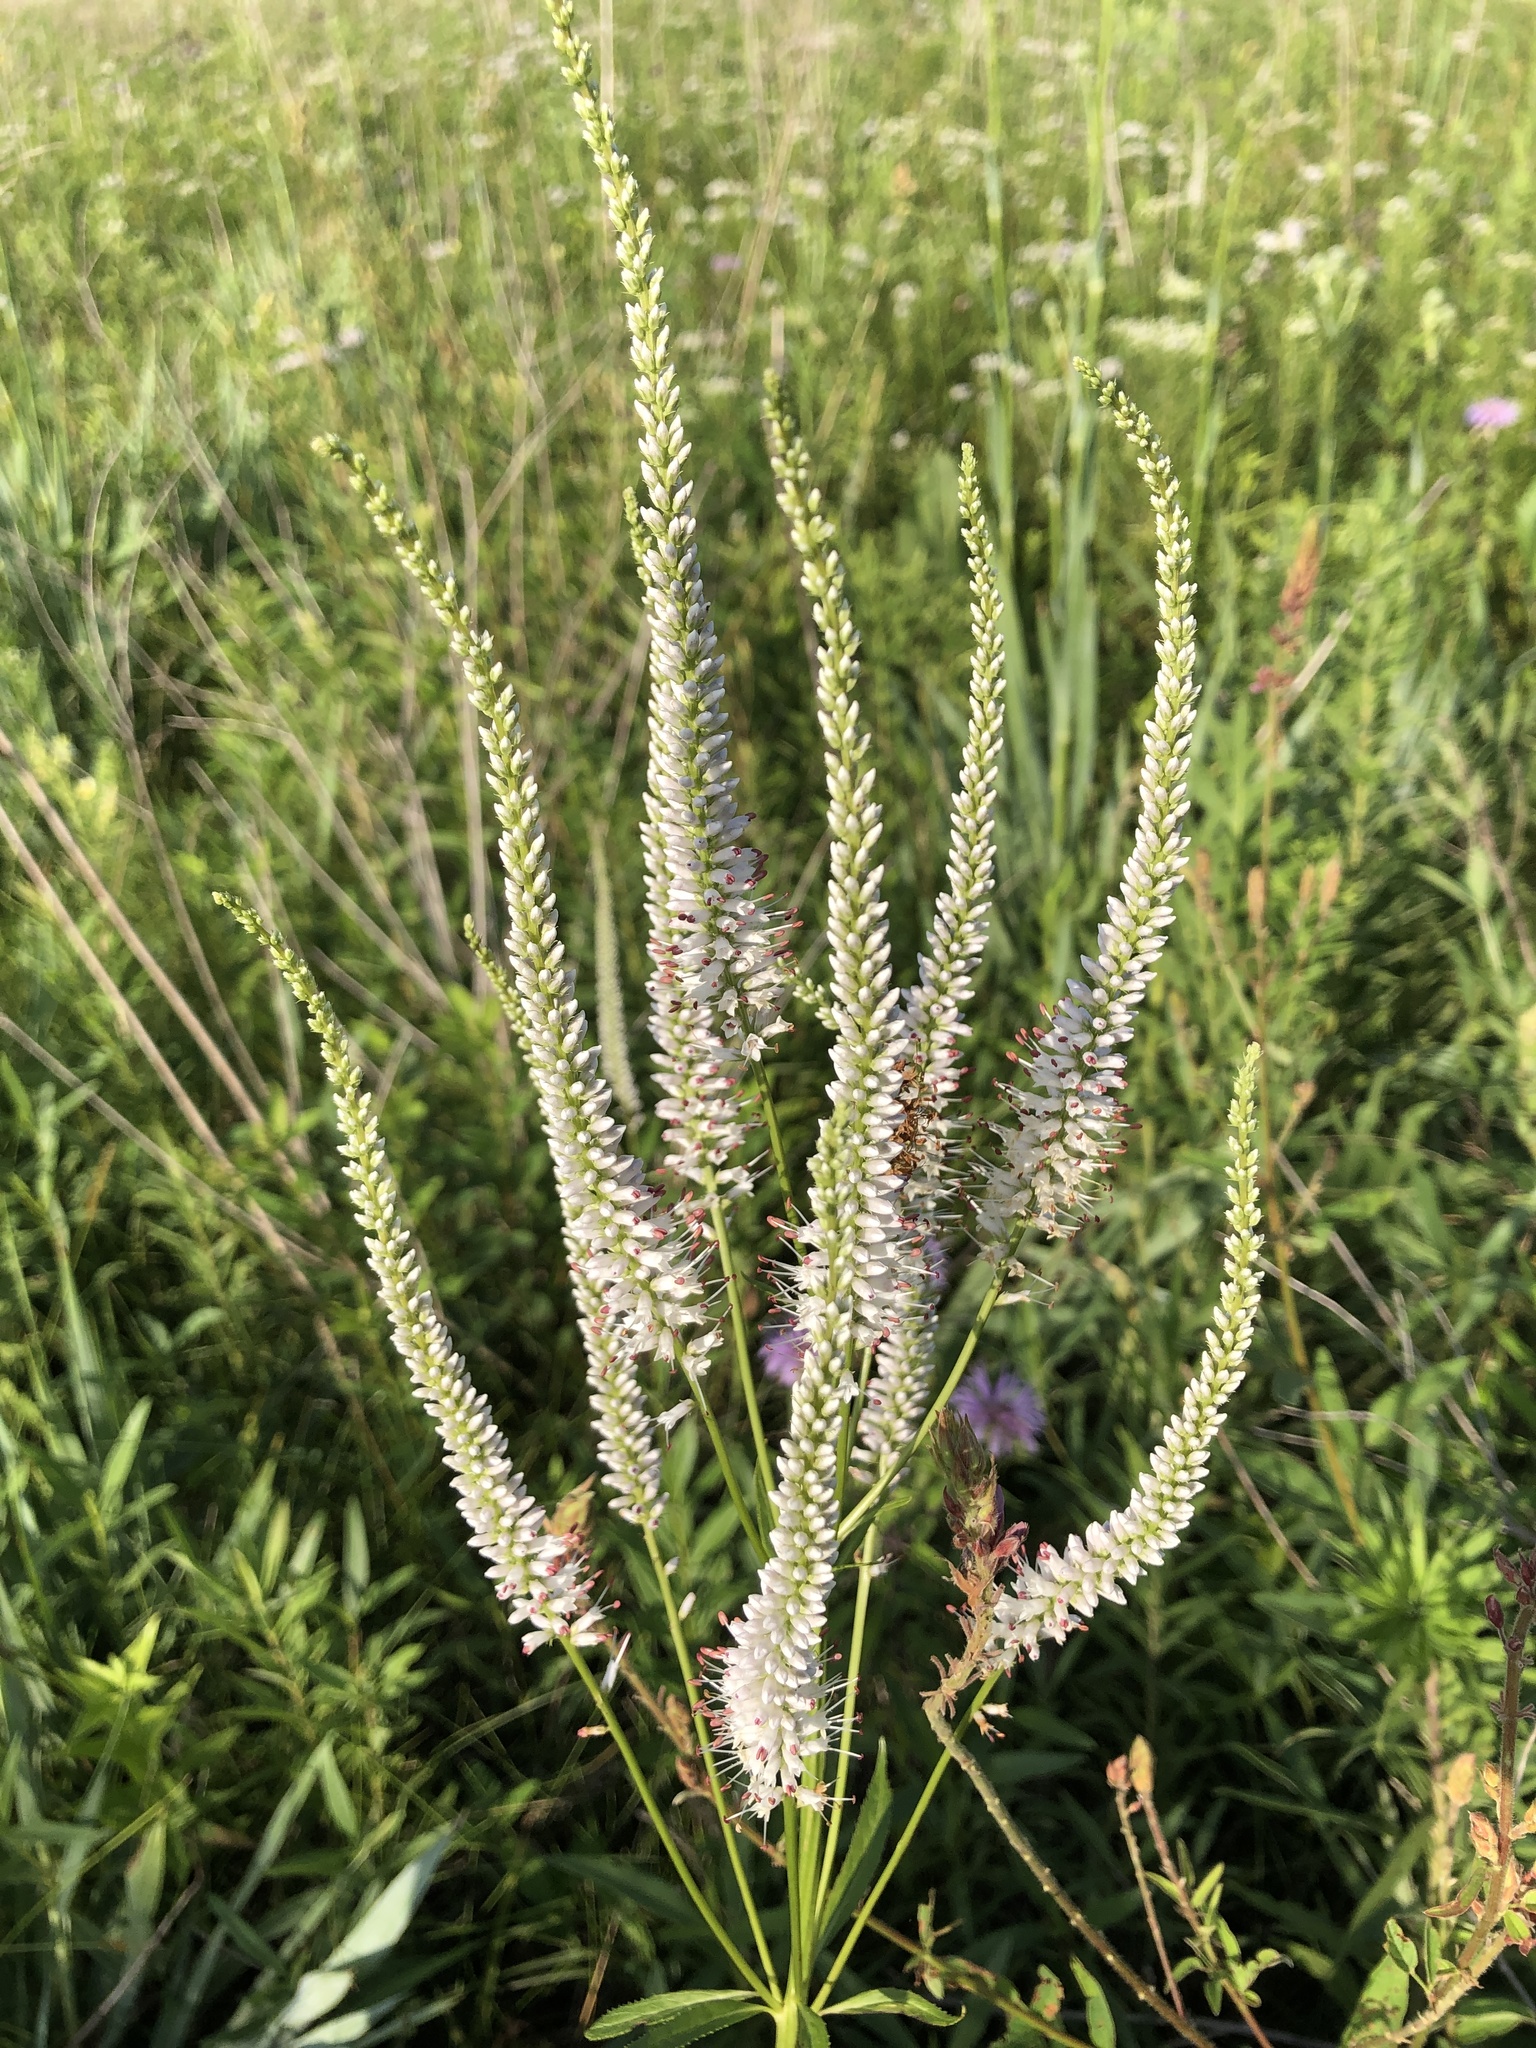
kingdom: Plantae
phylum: Tracheophyta
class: Magnoliopsida
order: Lamiales
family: Plantaginaceae
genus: Veronicastrum
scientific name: Veronicastrum virginicum
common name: Blackroot
